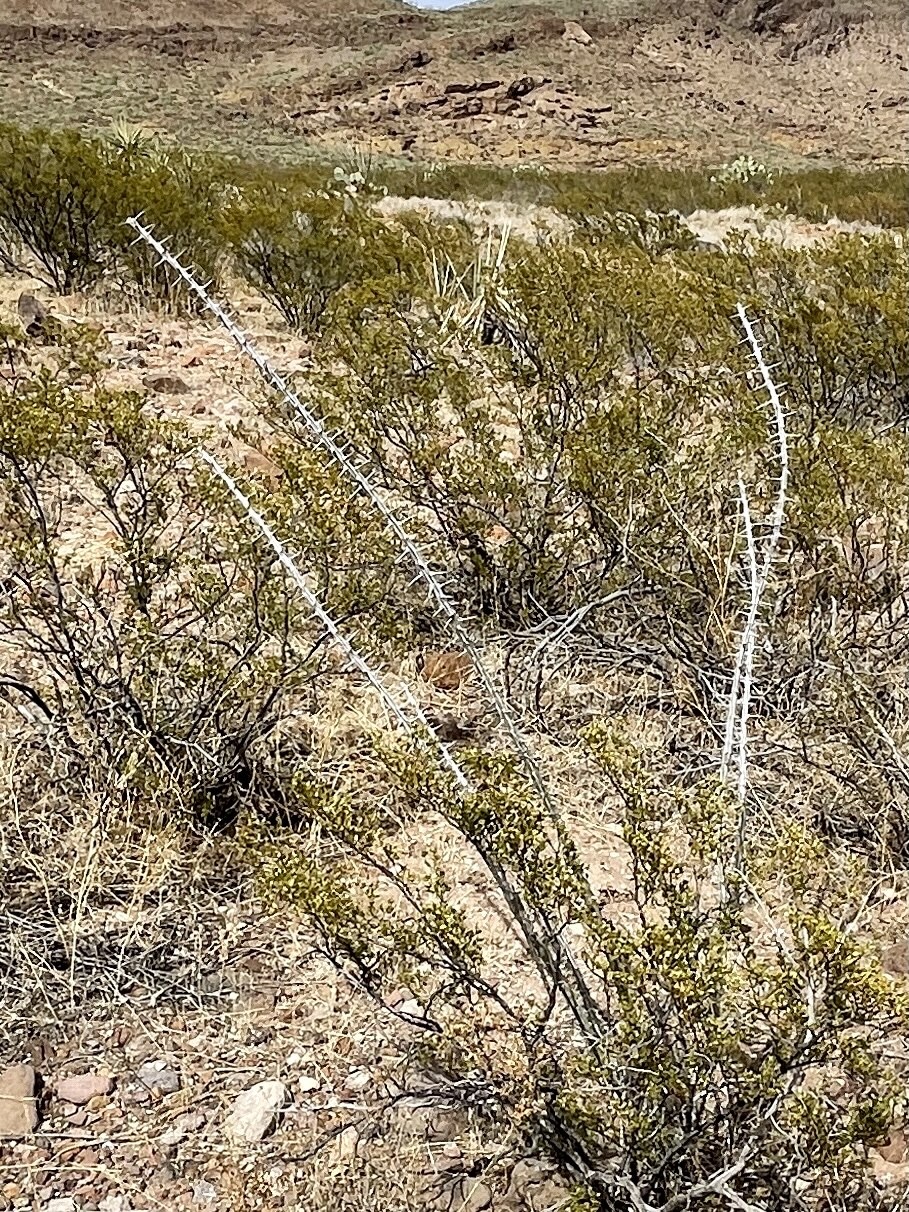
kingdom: Plantae
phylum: Tracheophyta
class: Magnoliopsida
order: Ericales
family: Fouquieriaceae
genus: Fouquieria
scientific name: Fouquieria splendens
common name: Vine-cactus
